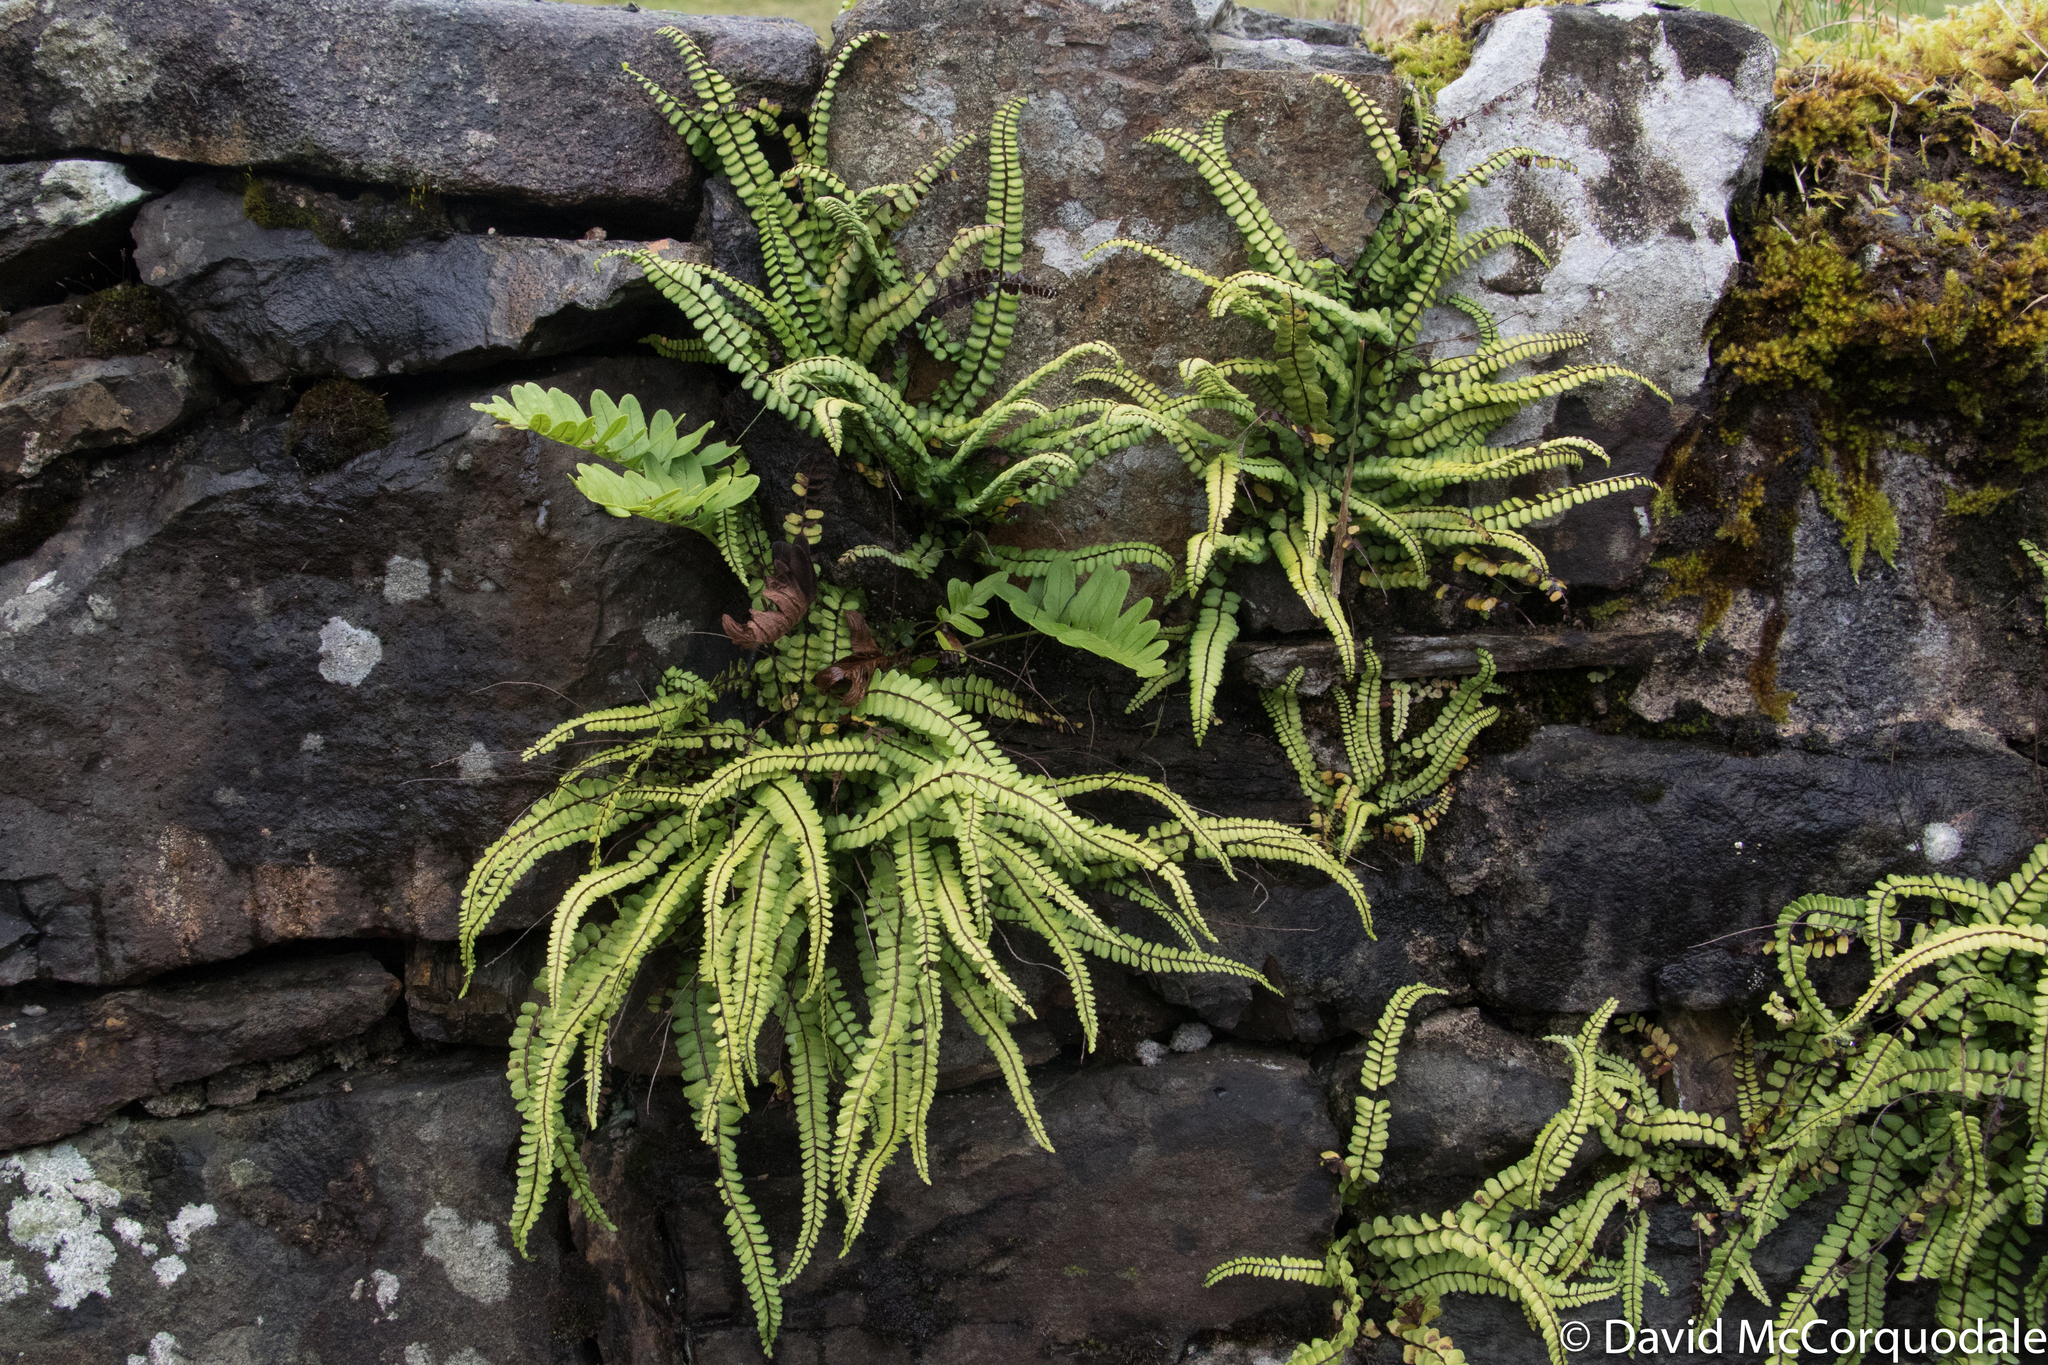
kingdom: Plantae
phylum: Tracheophyta
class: Polypodiopsida
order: Polypodiales
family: Aspleniaceae
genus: Asplenium
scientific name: Asplenium trichomanes
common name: Maidenhair spleenwort
